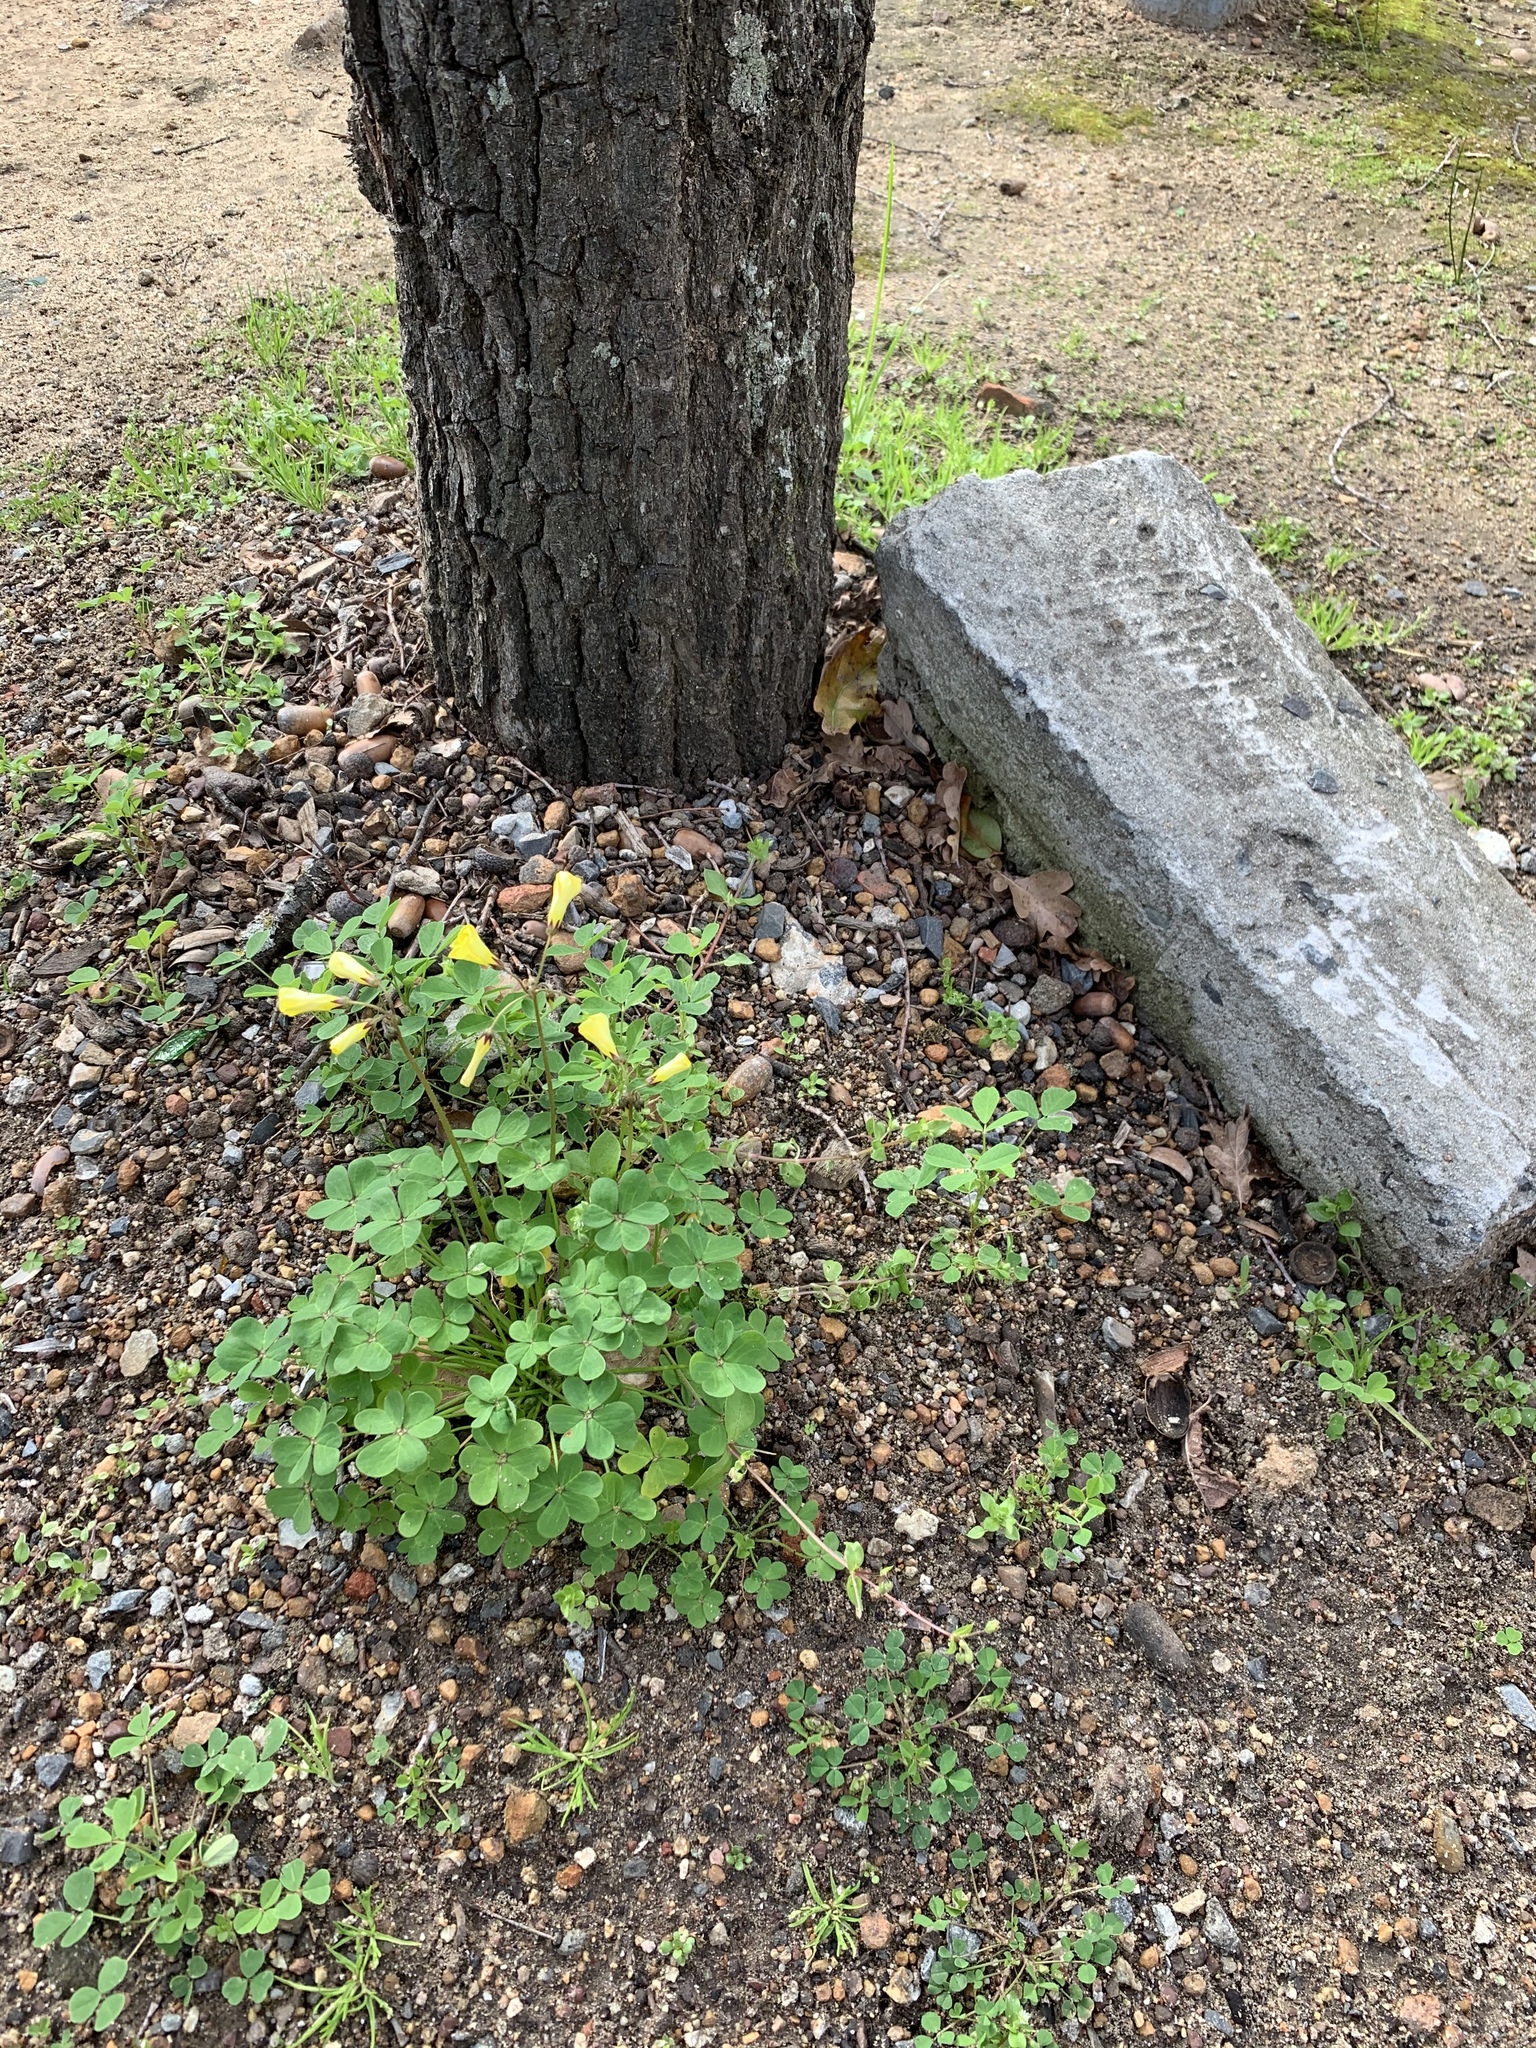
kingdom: Plantae
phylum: Tracheophyta
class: Magnoliopsida
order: Oxalidales
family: Oxalidaceae
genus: Oxalis
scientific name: Oxalis pes-caprae
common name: Bermuda-buttercup
